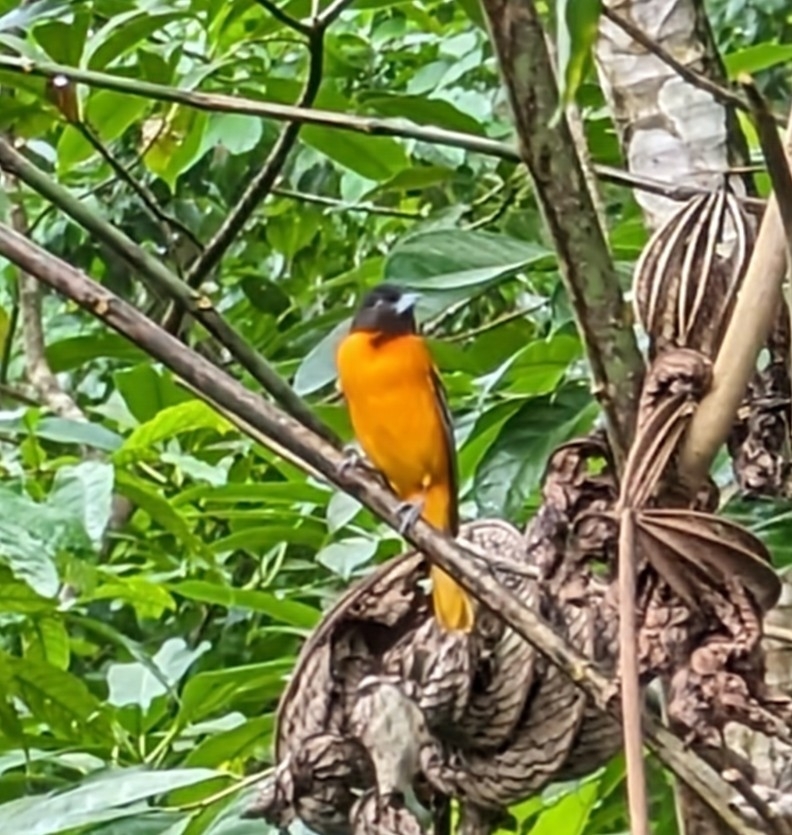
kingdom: Animalia
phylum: Chordata
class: Aves
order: Passeriformes
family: Icteridae
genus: Icterus
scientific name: Icterus galbula
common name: Baltimore oriole
